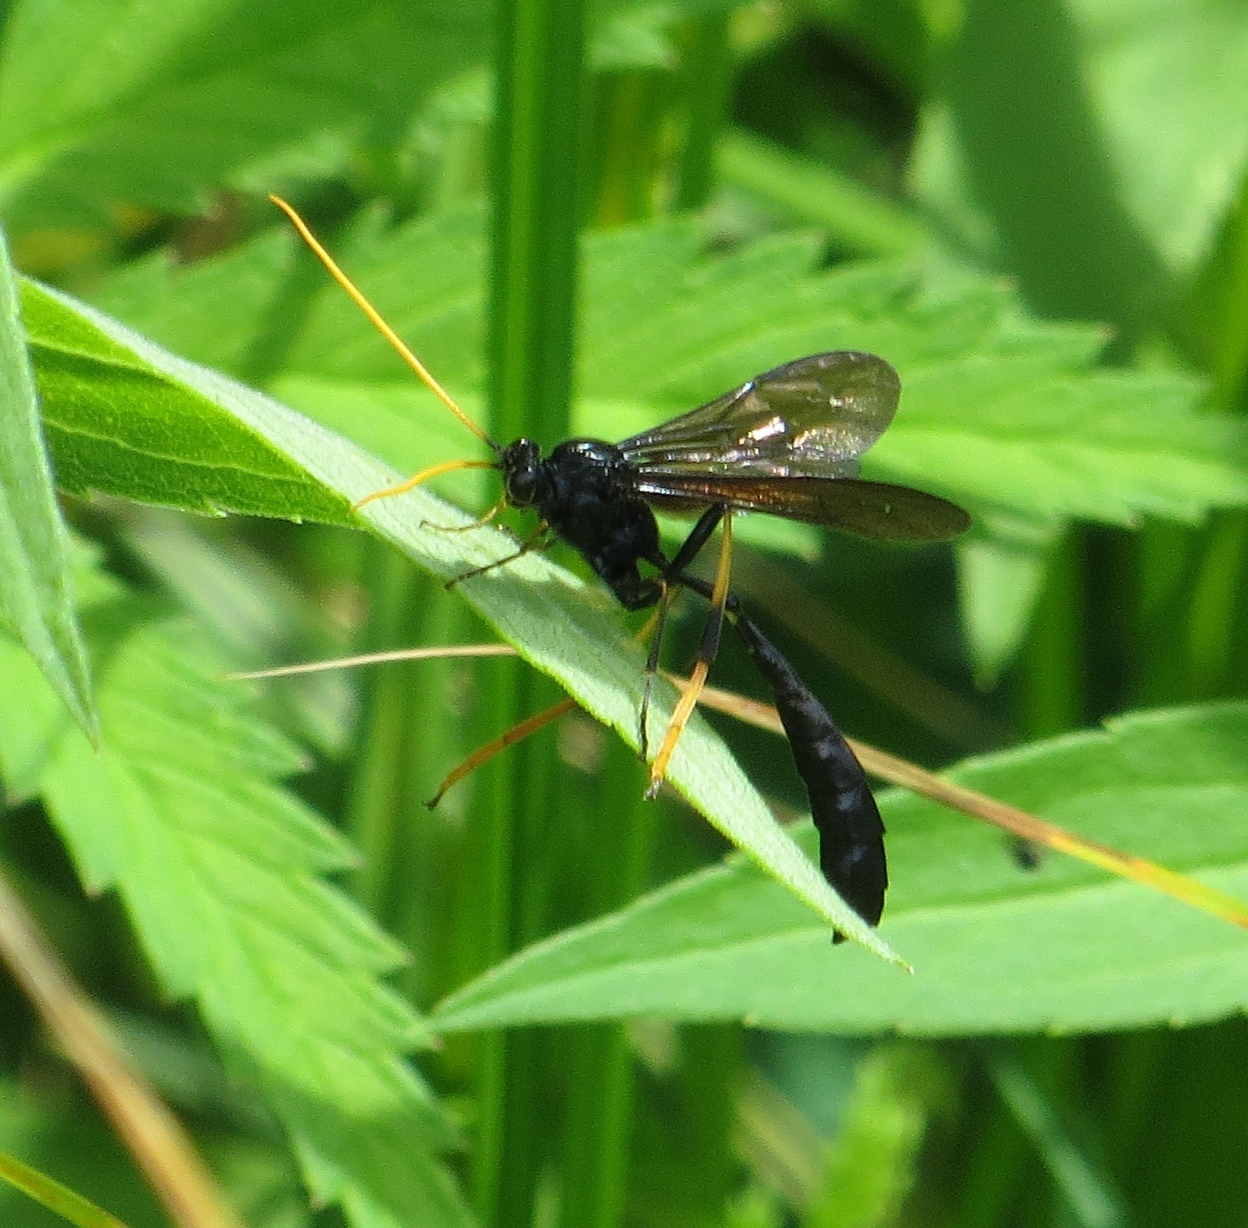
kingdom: Animalia
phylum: Arthropoda
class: Insecta
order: Hymenoptera
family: Ichneumonidae
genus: Therion
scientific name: Therion morio
